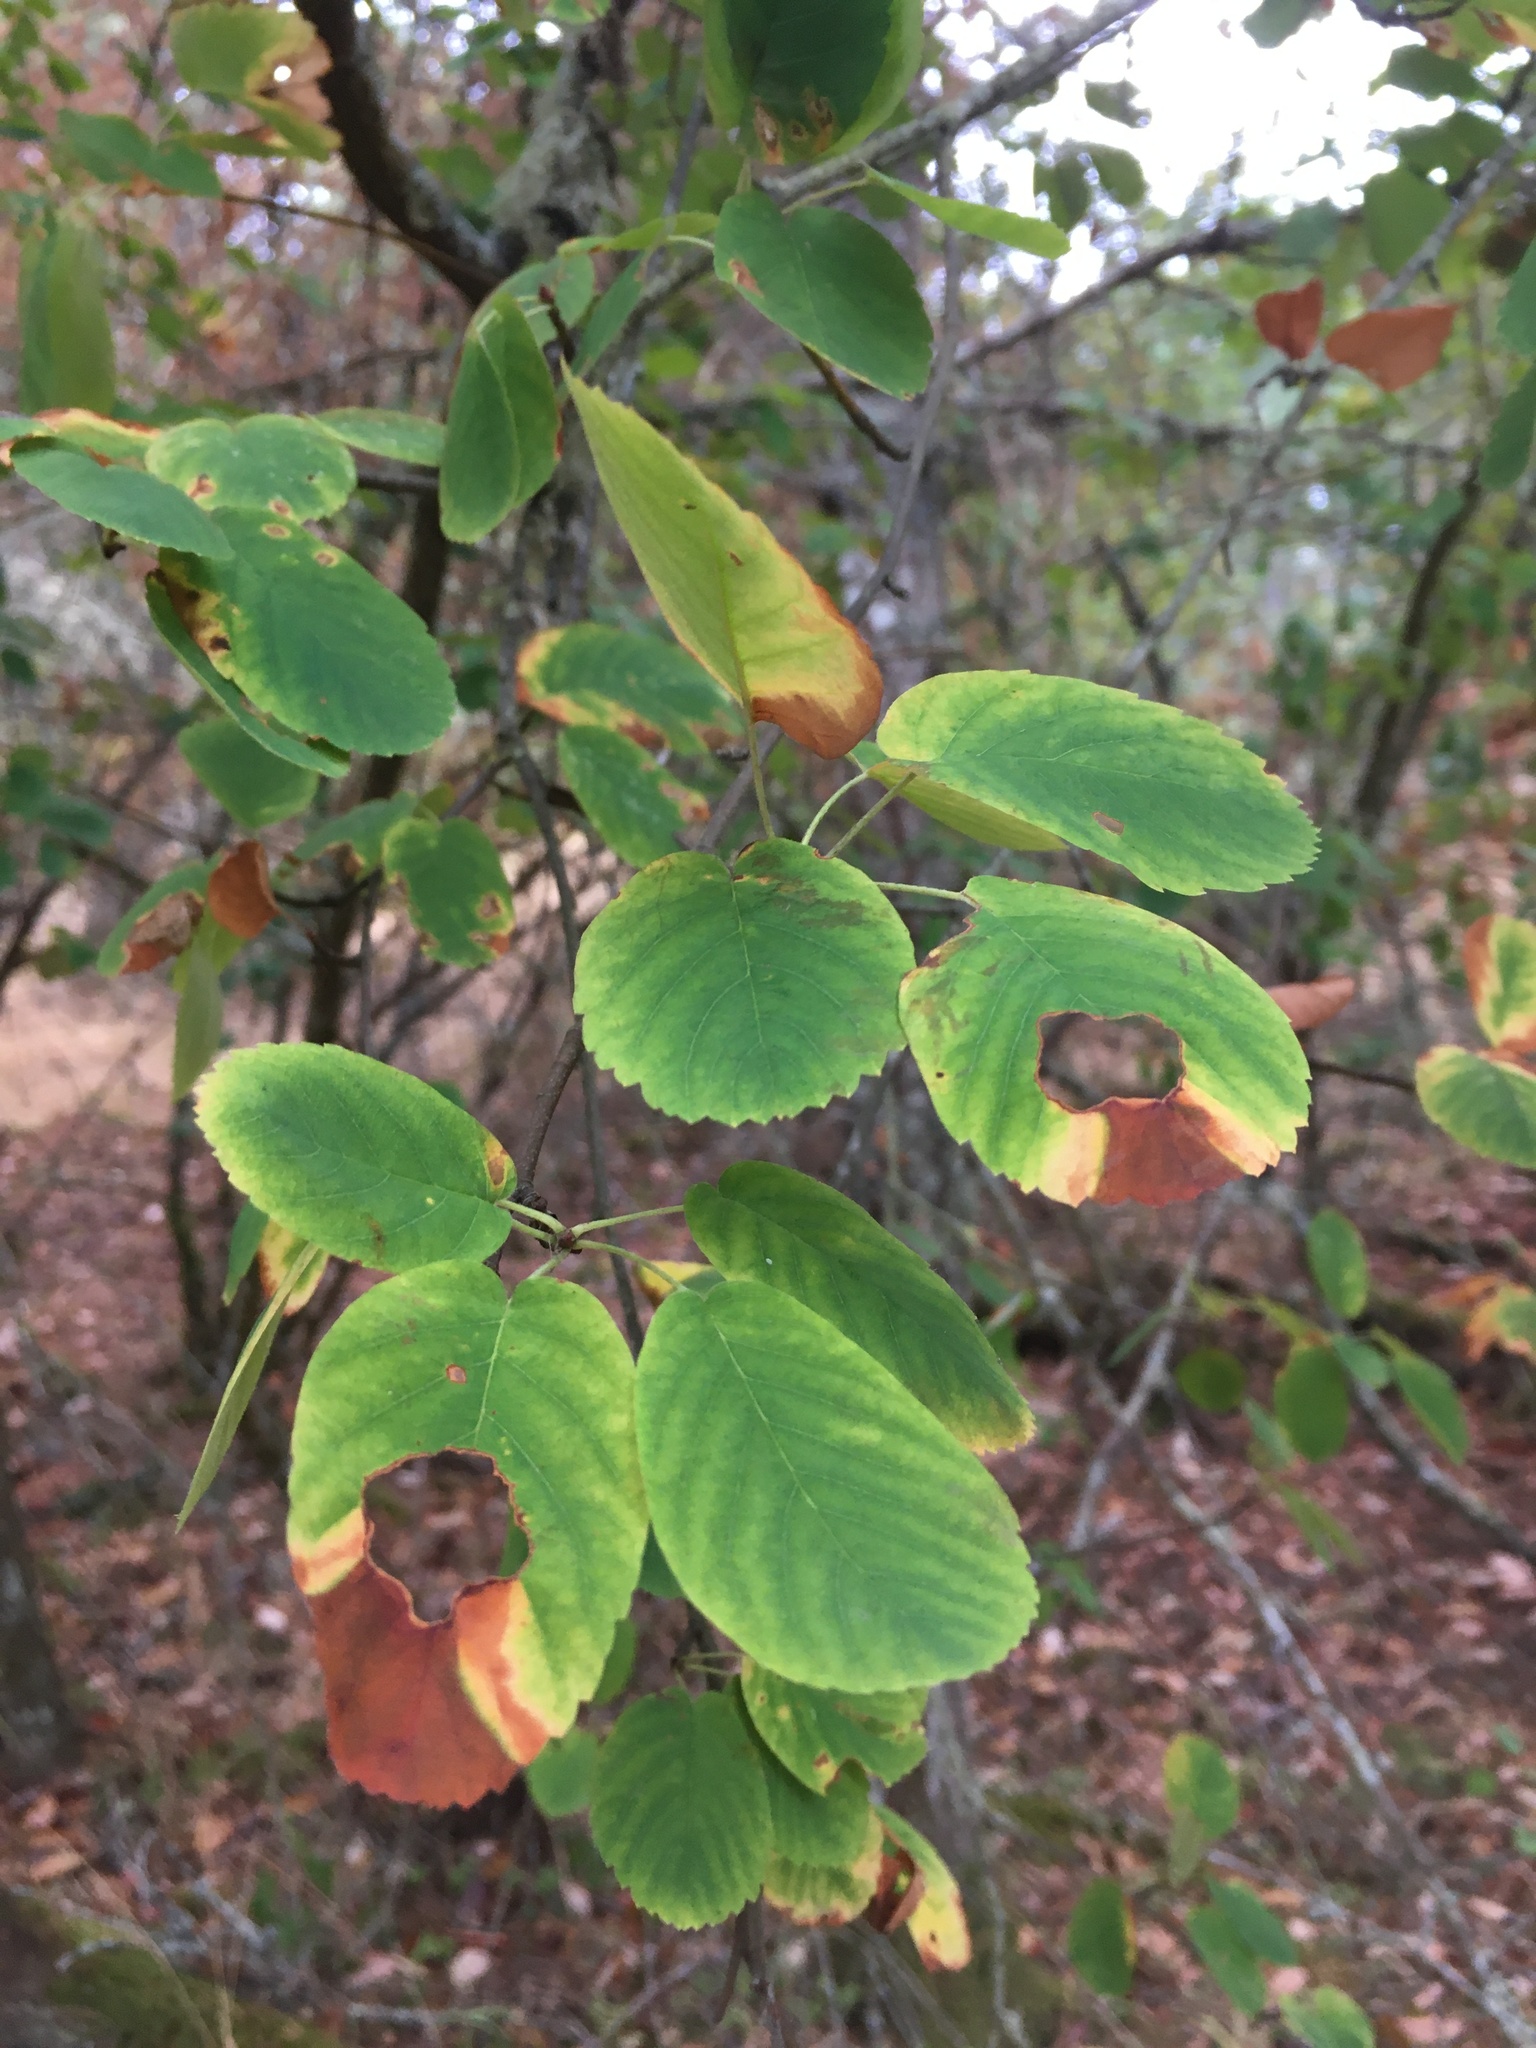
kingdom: Plantae
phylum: Tracheophyta
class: Magnoliopsida
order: Rosales
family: Rosaceae
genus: Amelanchier
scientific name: Amelanchier alnifolia
